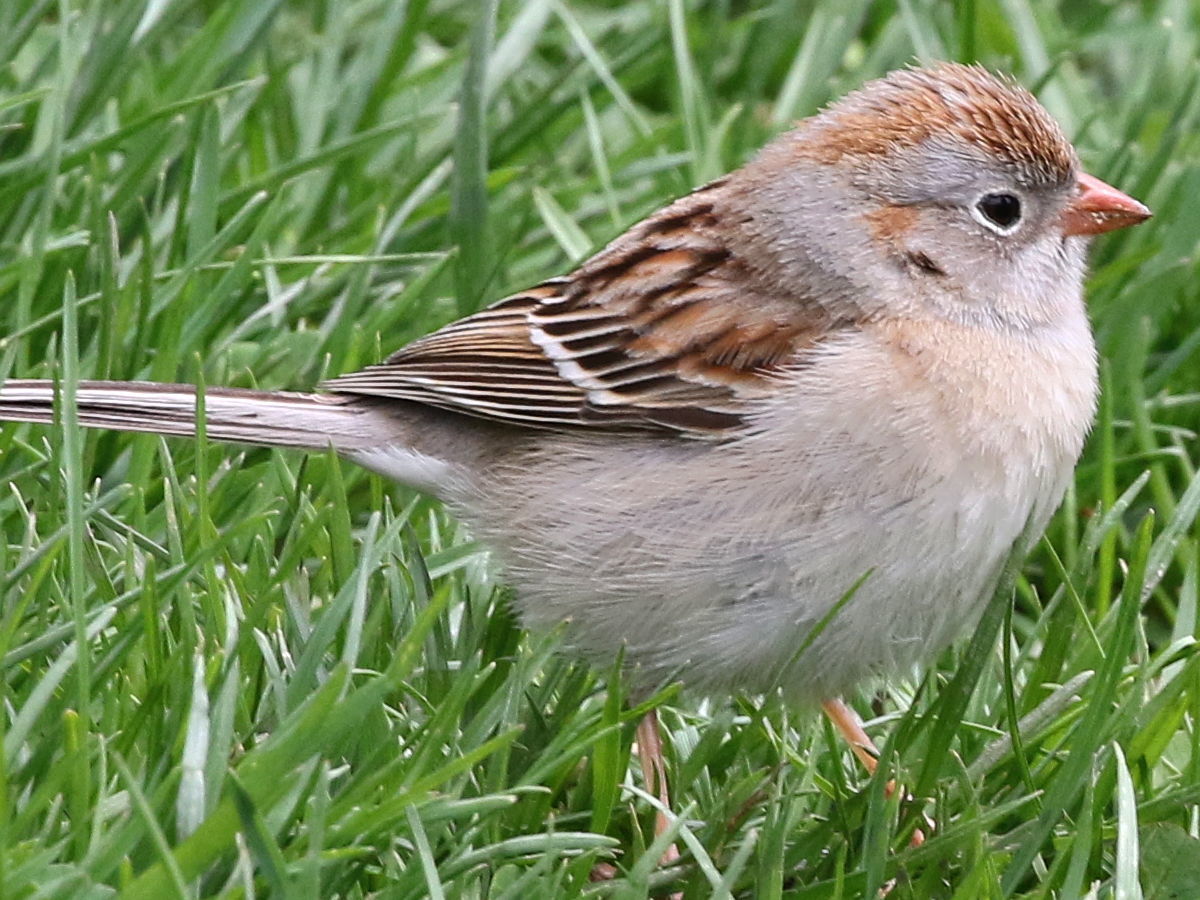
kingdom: Animalia
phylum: Chordata
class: Aves
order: Passeriformes
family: Passerellidae
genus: Spizella
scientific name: Spizella pusilla
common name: Field sparrow
